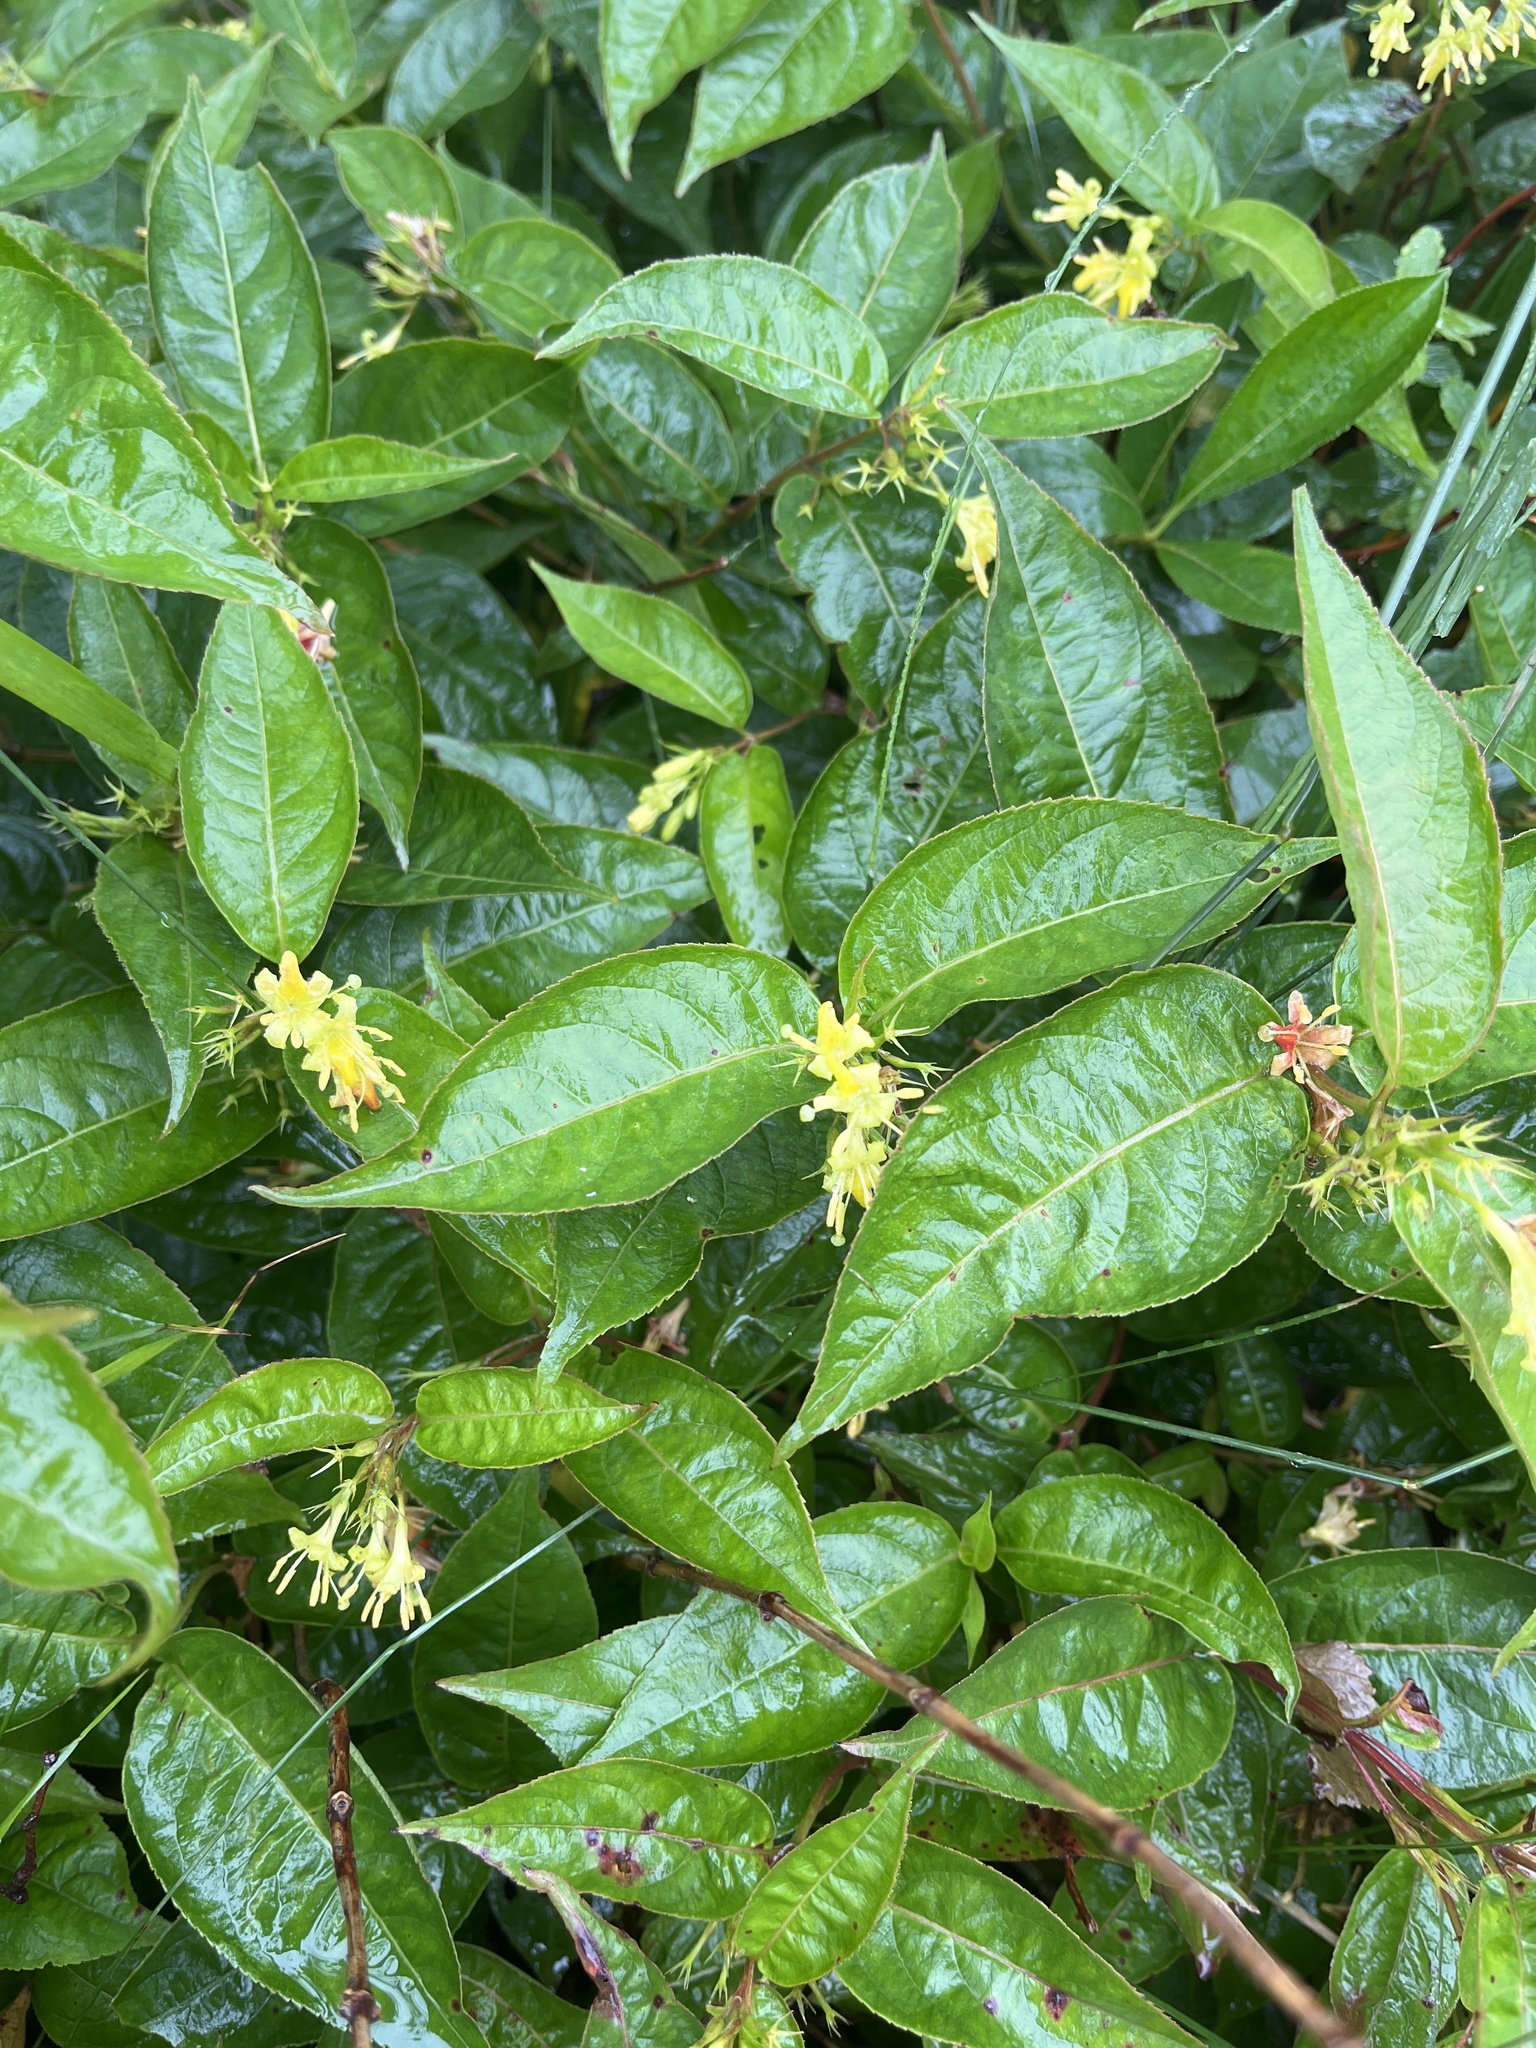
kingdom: Plantae
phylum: Tracheophyta
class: Magnoliopsida
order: Dipsacales
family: Caprifoliaceae
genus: Diervilla
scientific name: Diervilla lonicera
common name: Bush-honeysuckle
